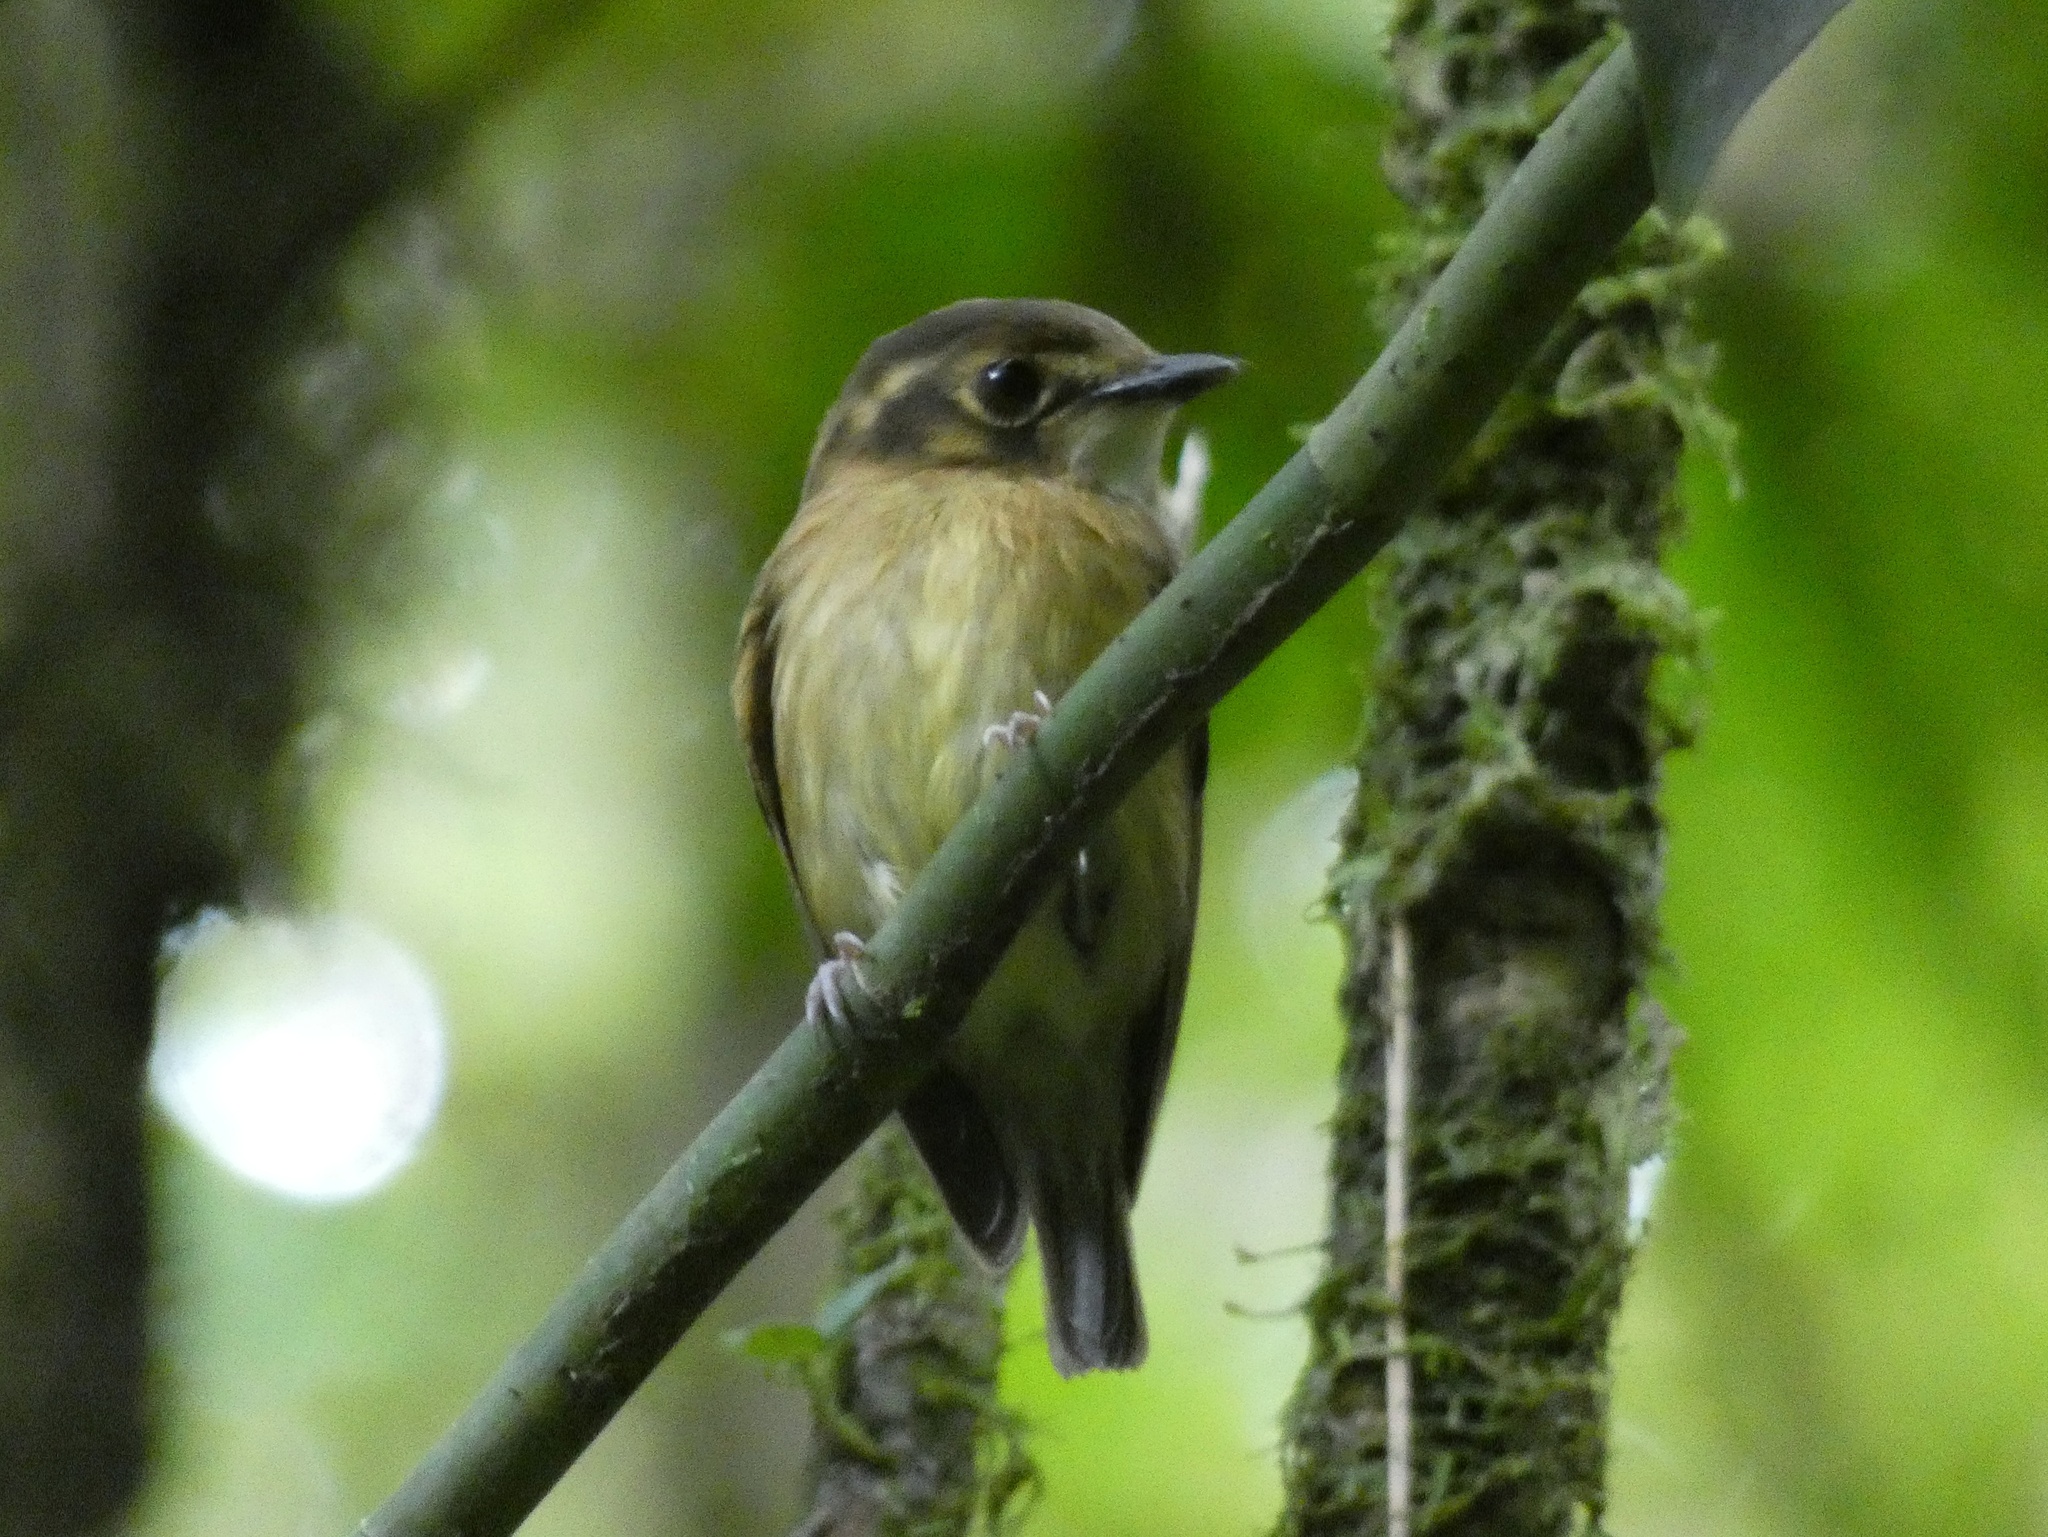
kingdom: Animalia
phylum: Chordata
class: Aves
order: Passeriformes
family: Tyrannidae
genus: Platyrinchus
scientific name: Platyrinchus mystaceus
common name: White-throated spadebill
